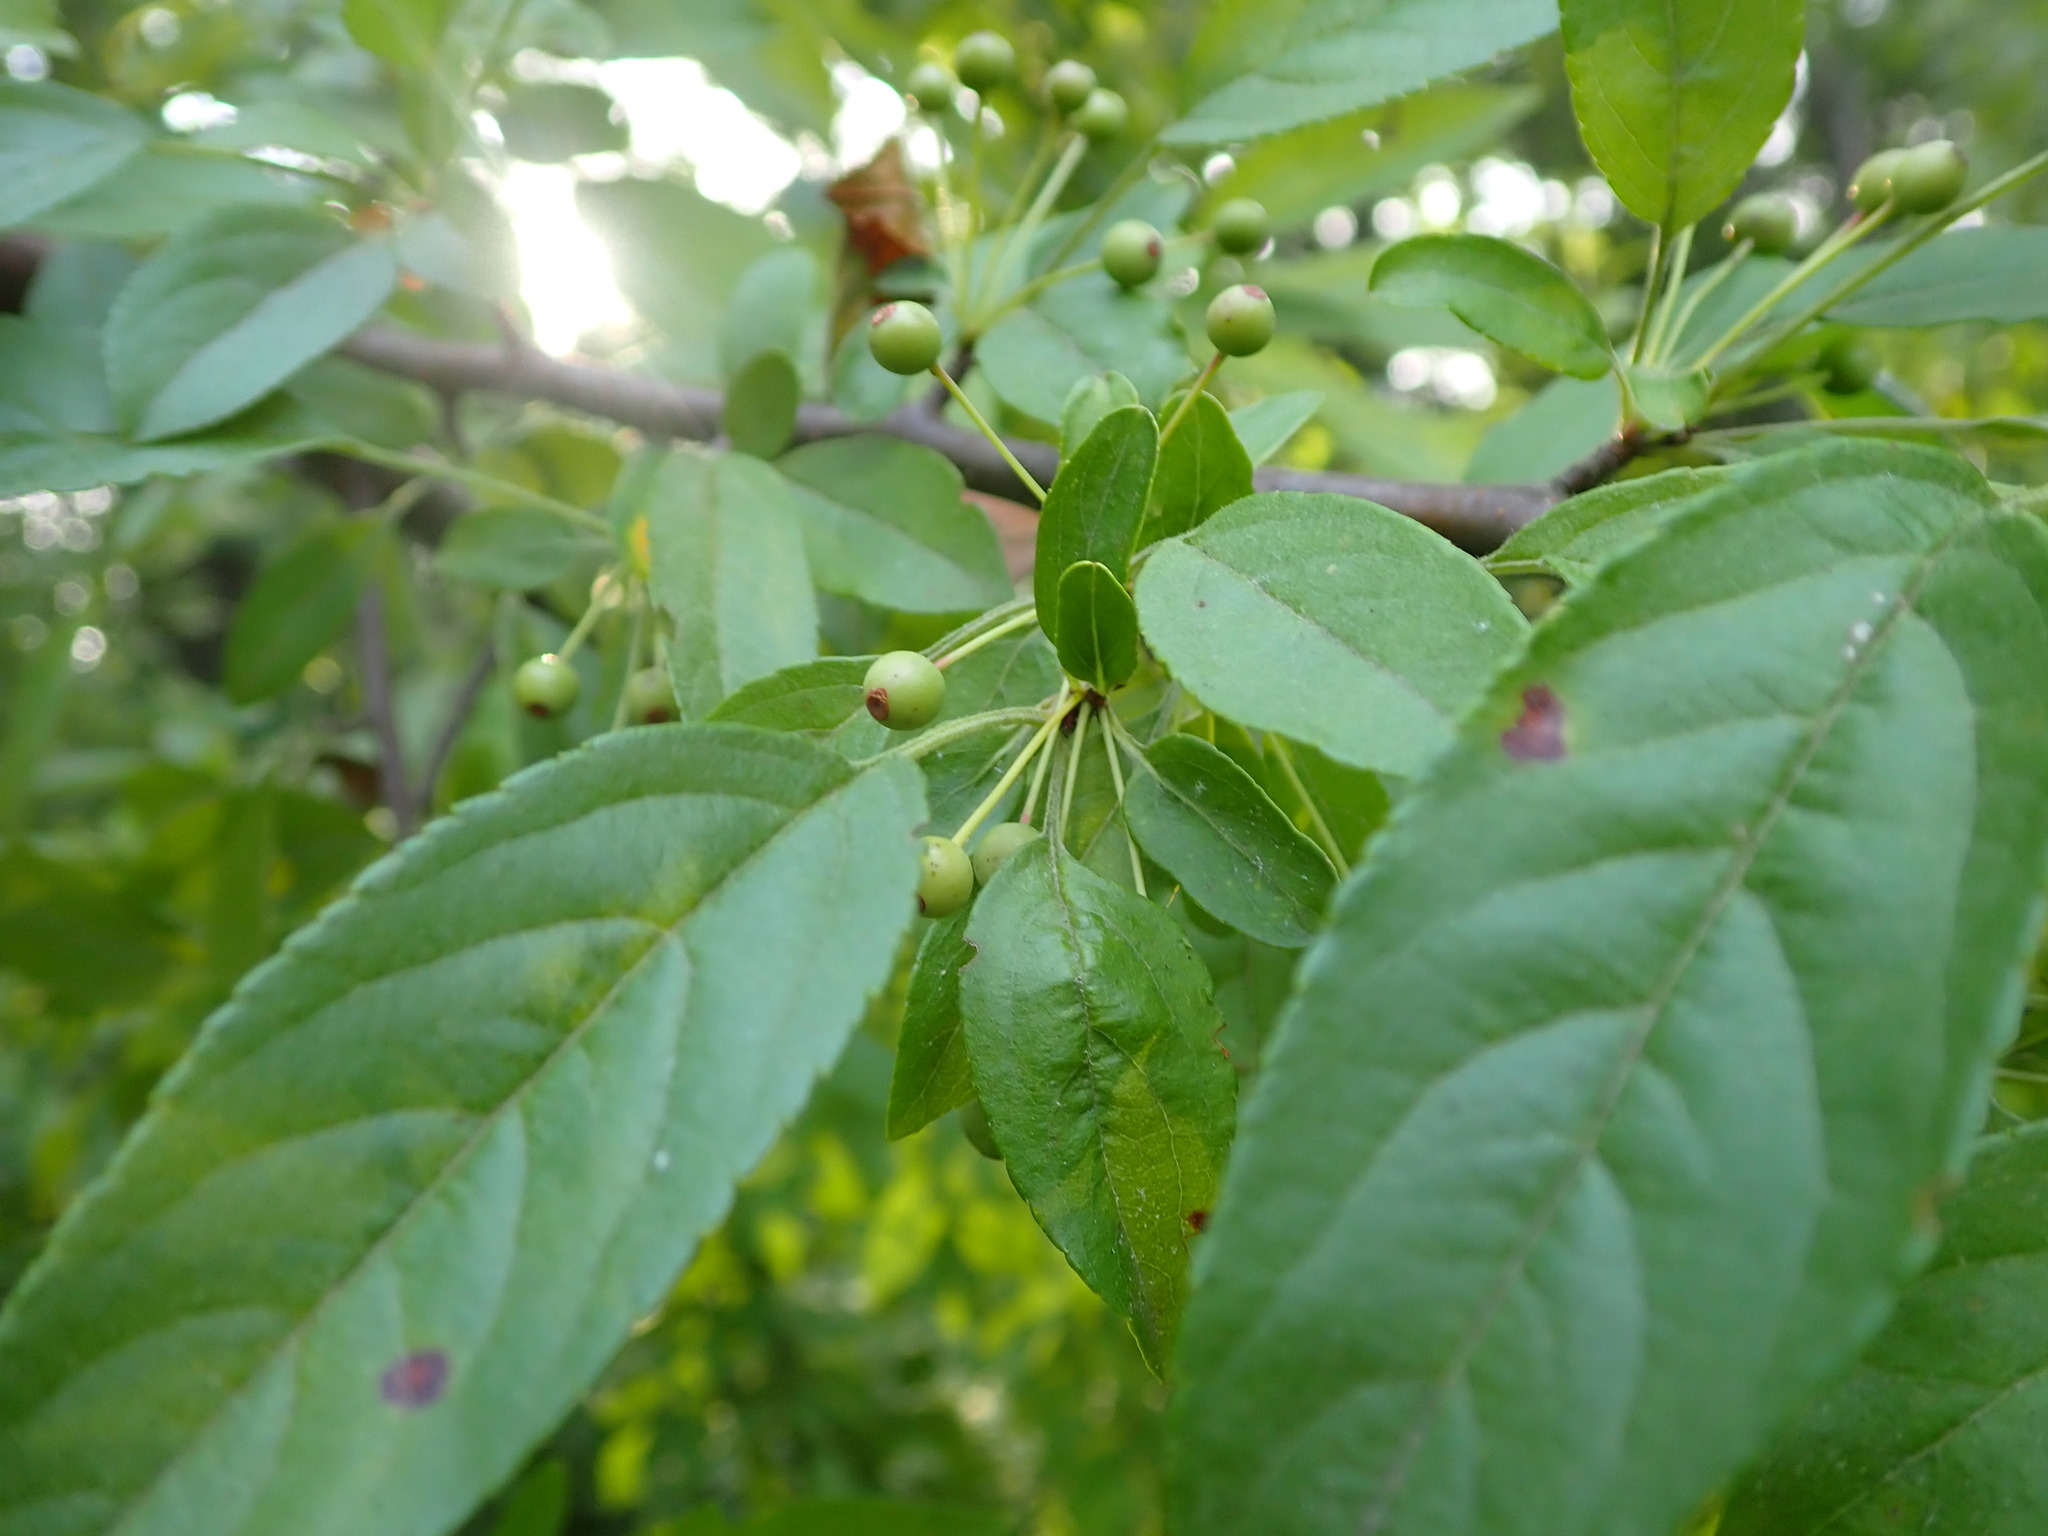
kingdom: Plantae
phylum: Tracheophyta
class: Magnoliopsida
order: Rosales
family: Rosaceae
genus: Malus
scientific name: Malus toringo
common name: Japanese crabapple
